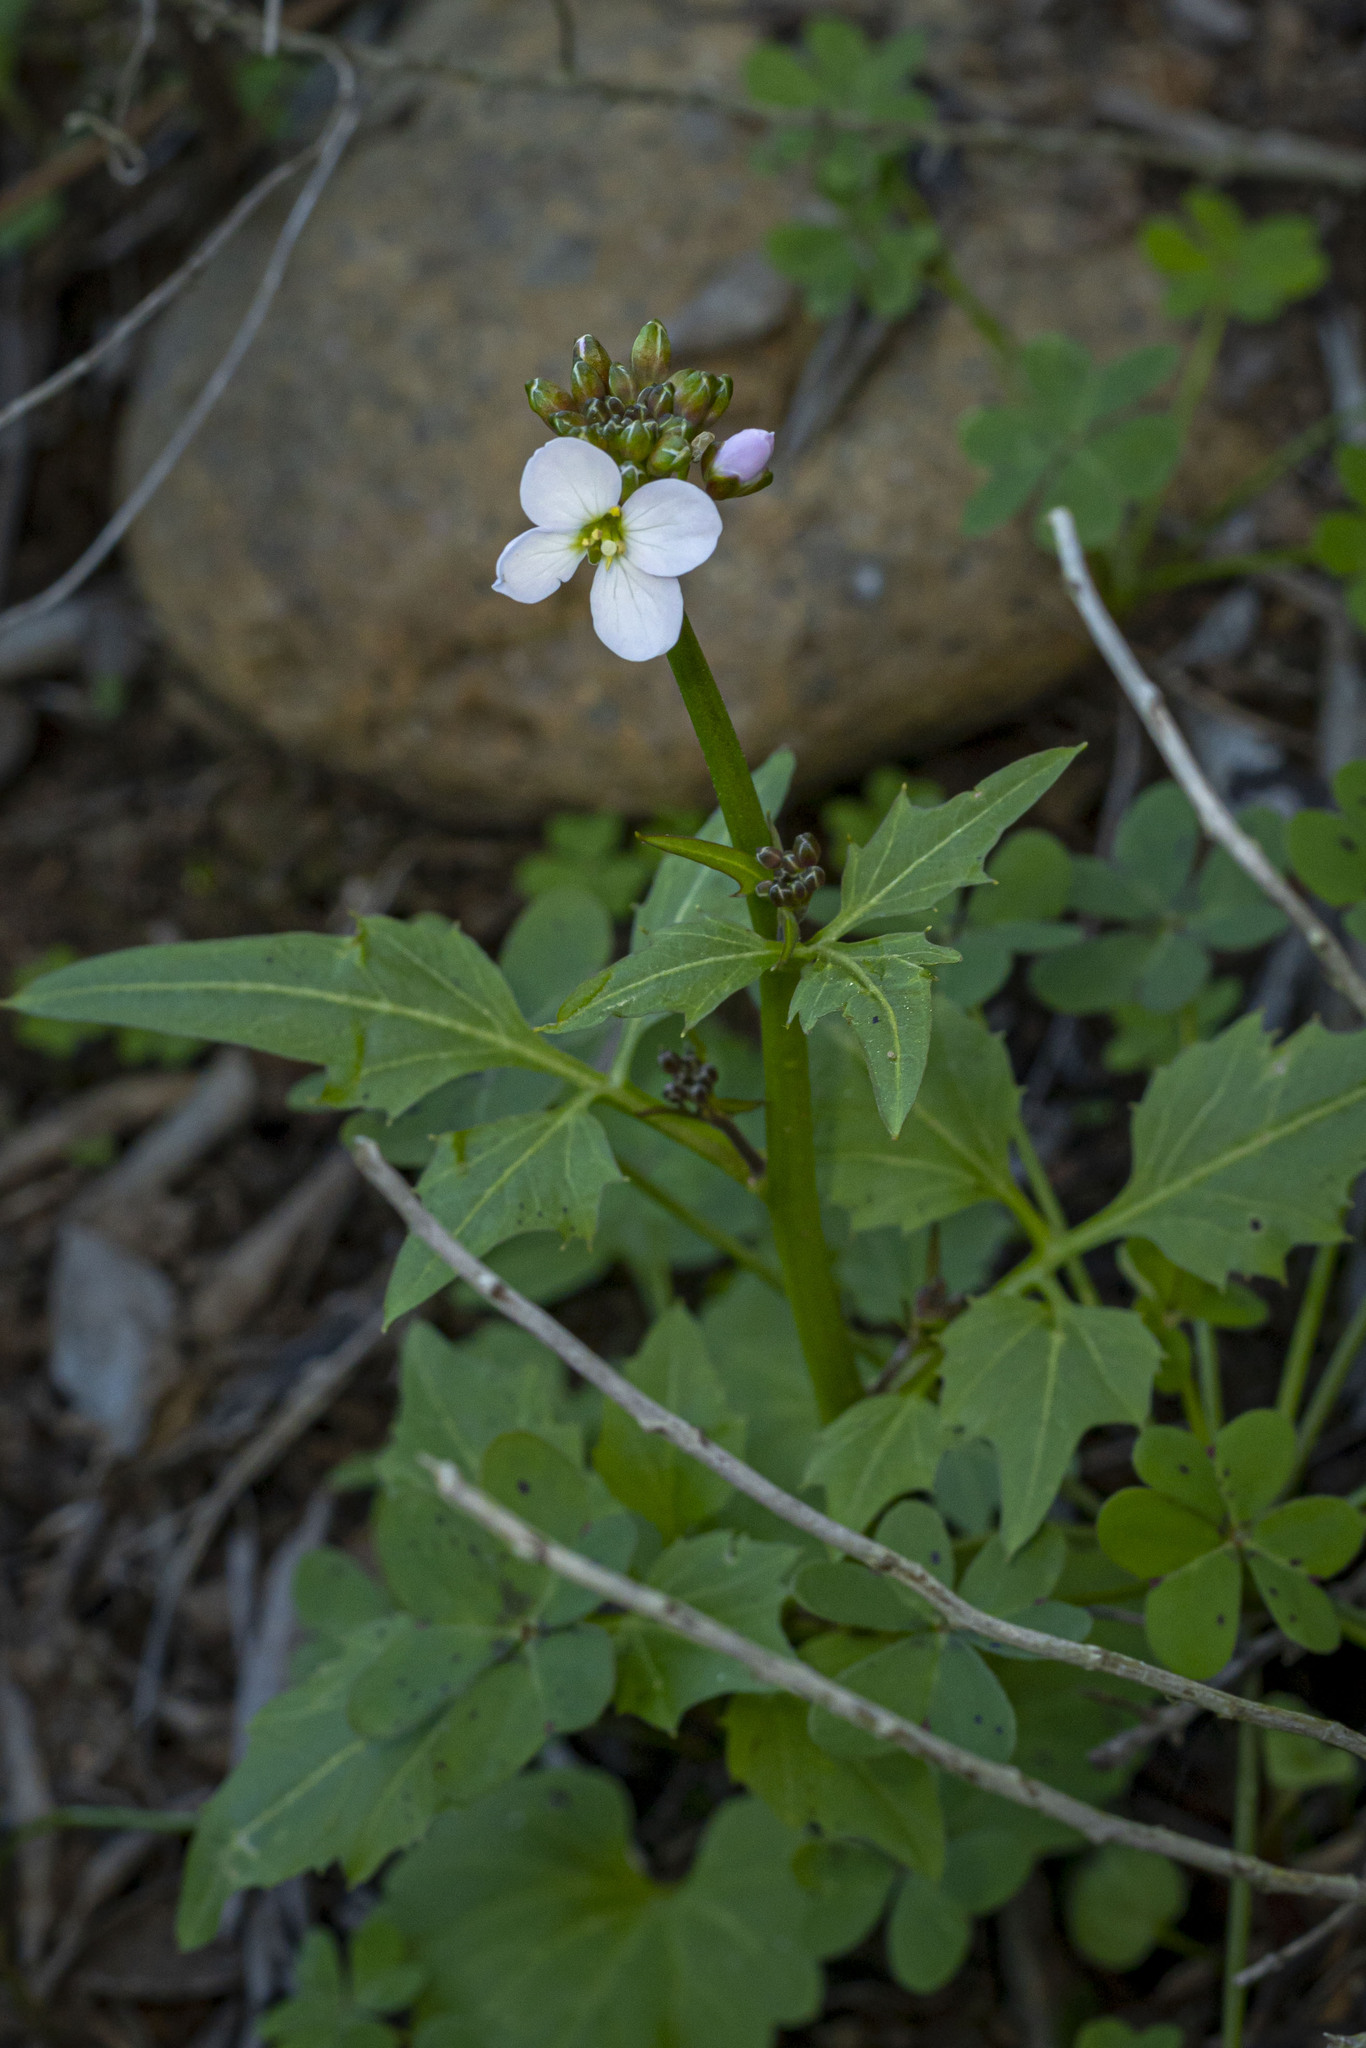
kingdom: Plantae
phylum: Tracheophyta
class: Magnoliopsida
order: Brassicales
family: Brassicaceae
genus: Cardamine
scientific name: Cardamine californica
